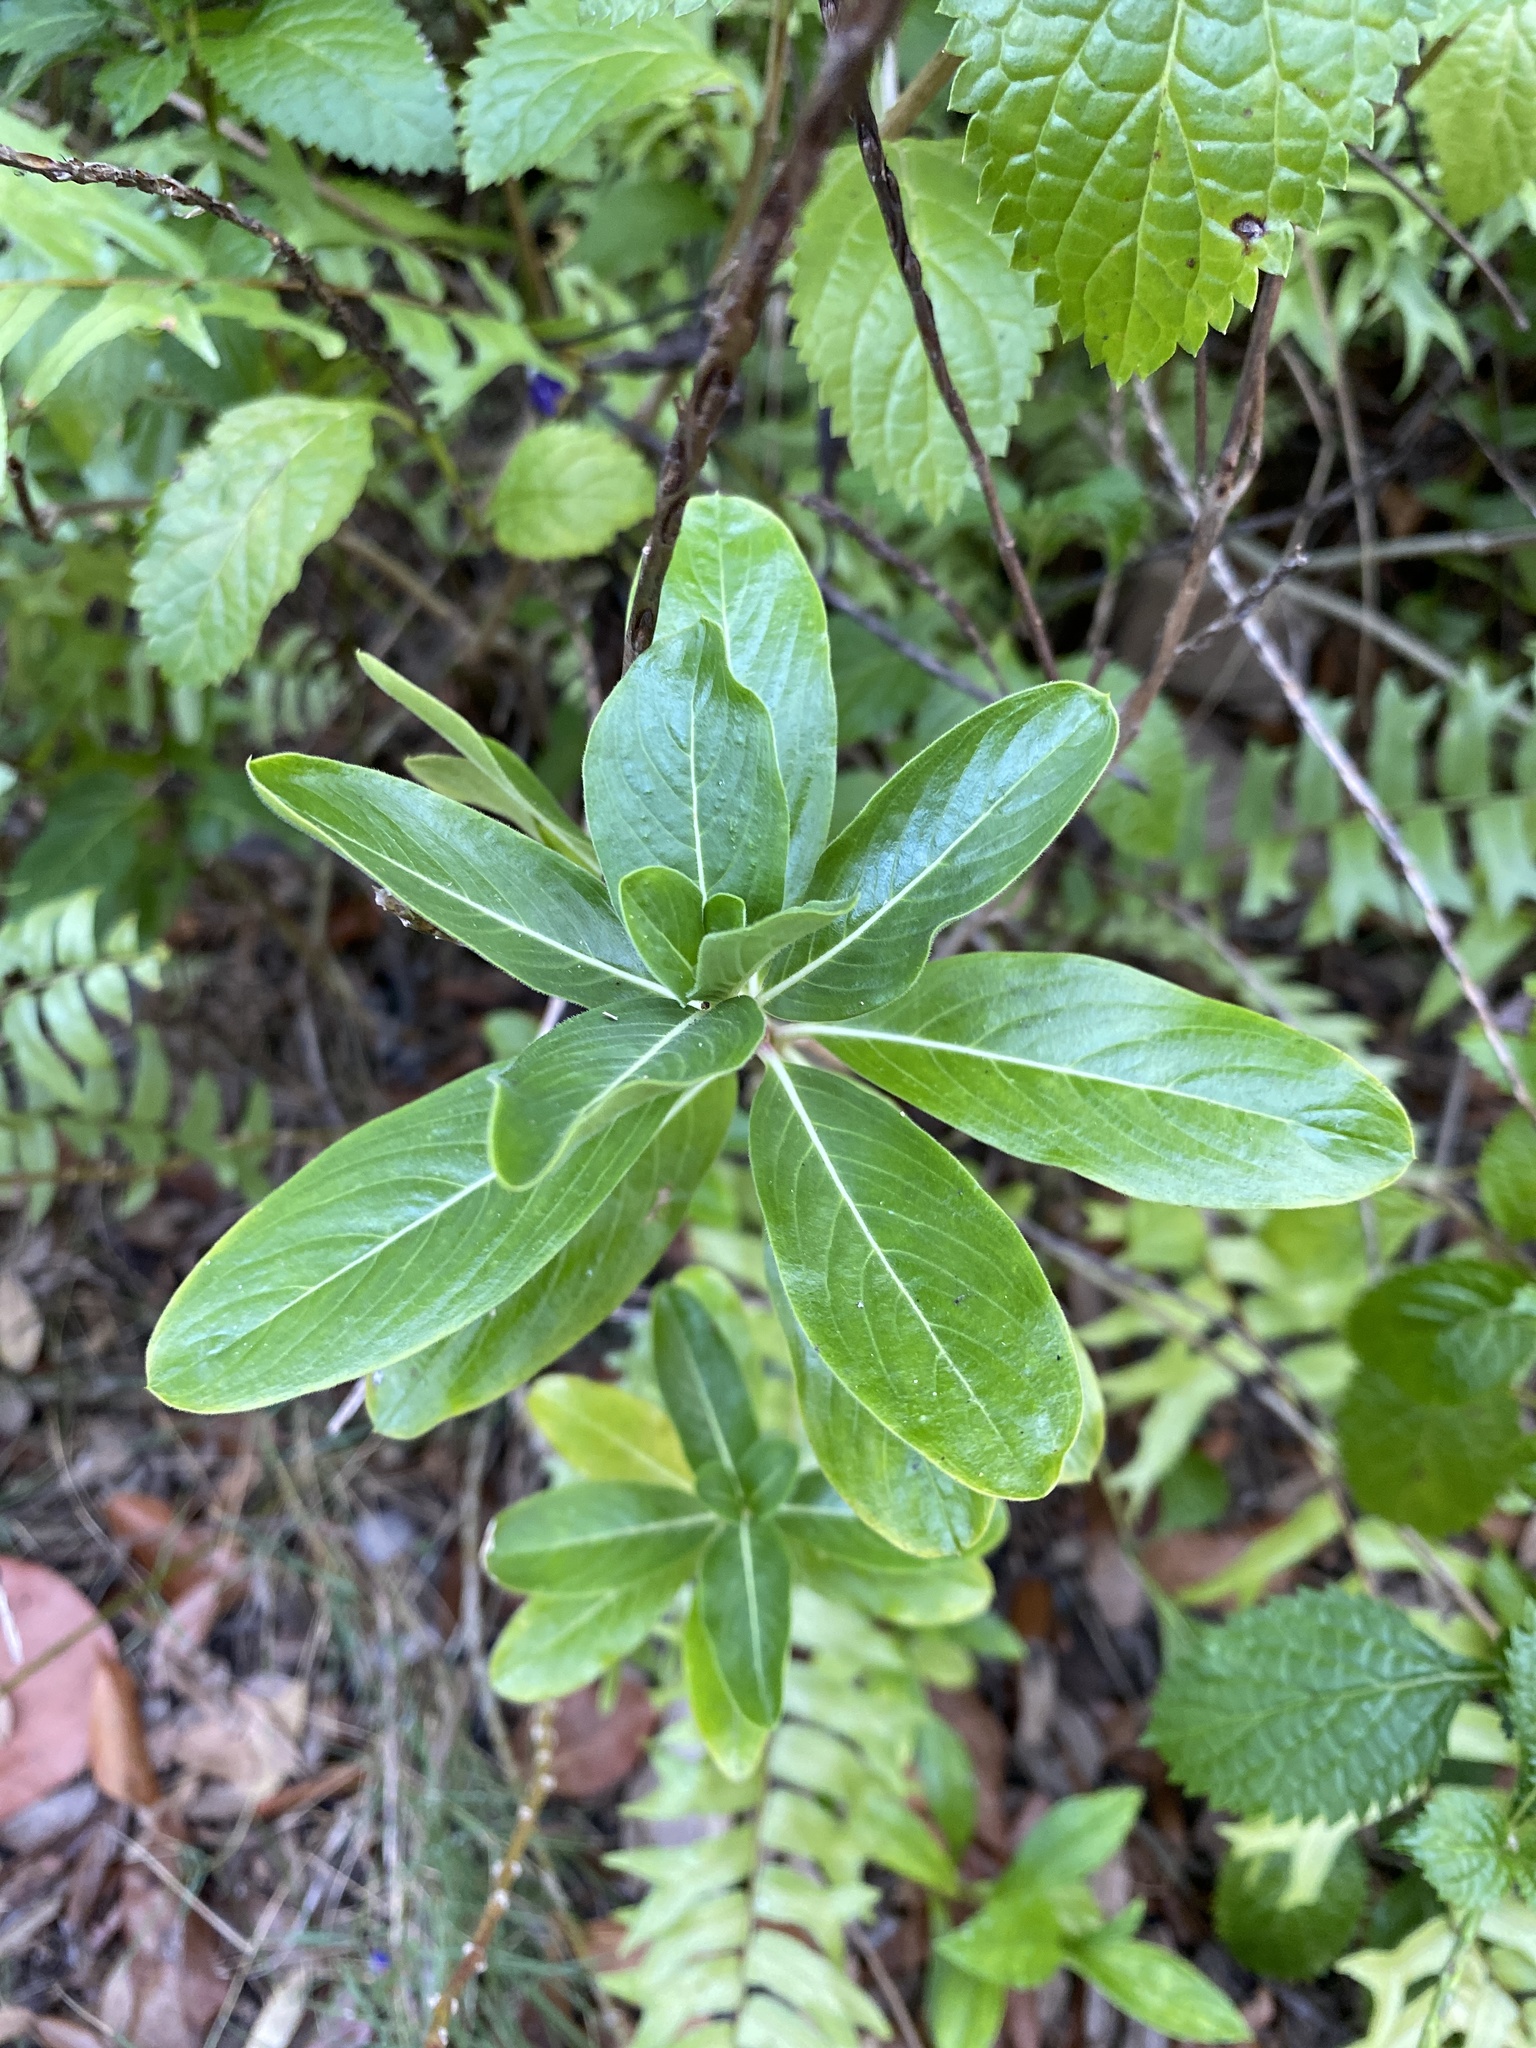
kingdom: Plantae
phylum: Tracheophyta
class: Magnoliopsida
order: Gentianales
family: Apocynaceae
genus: Catharanthus
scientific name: Catharanthus roseus
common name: Madagascar periwinkle
